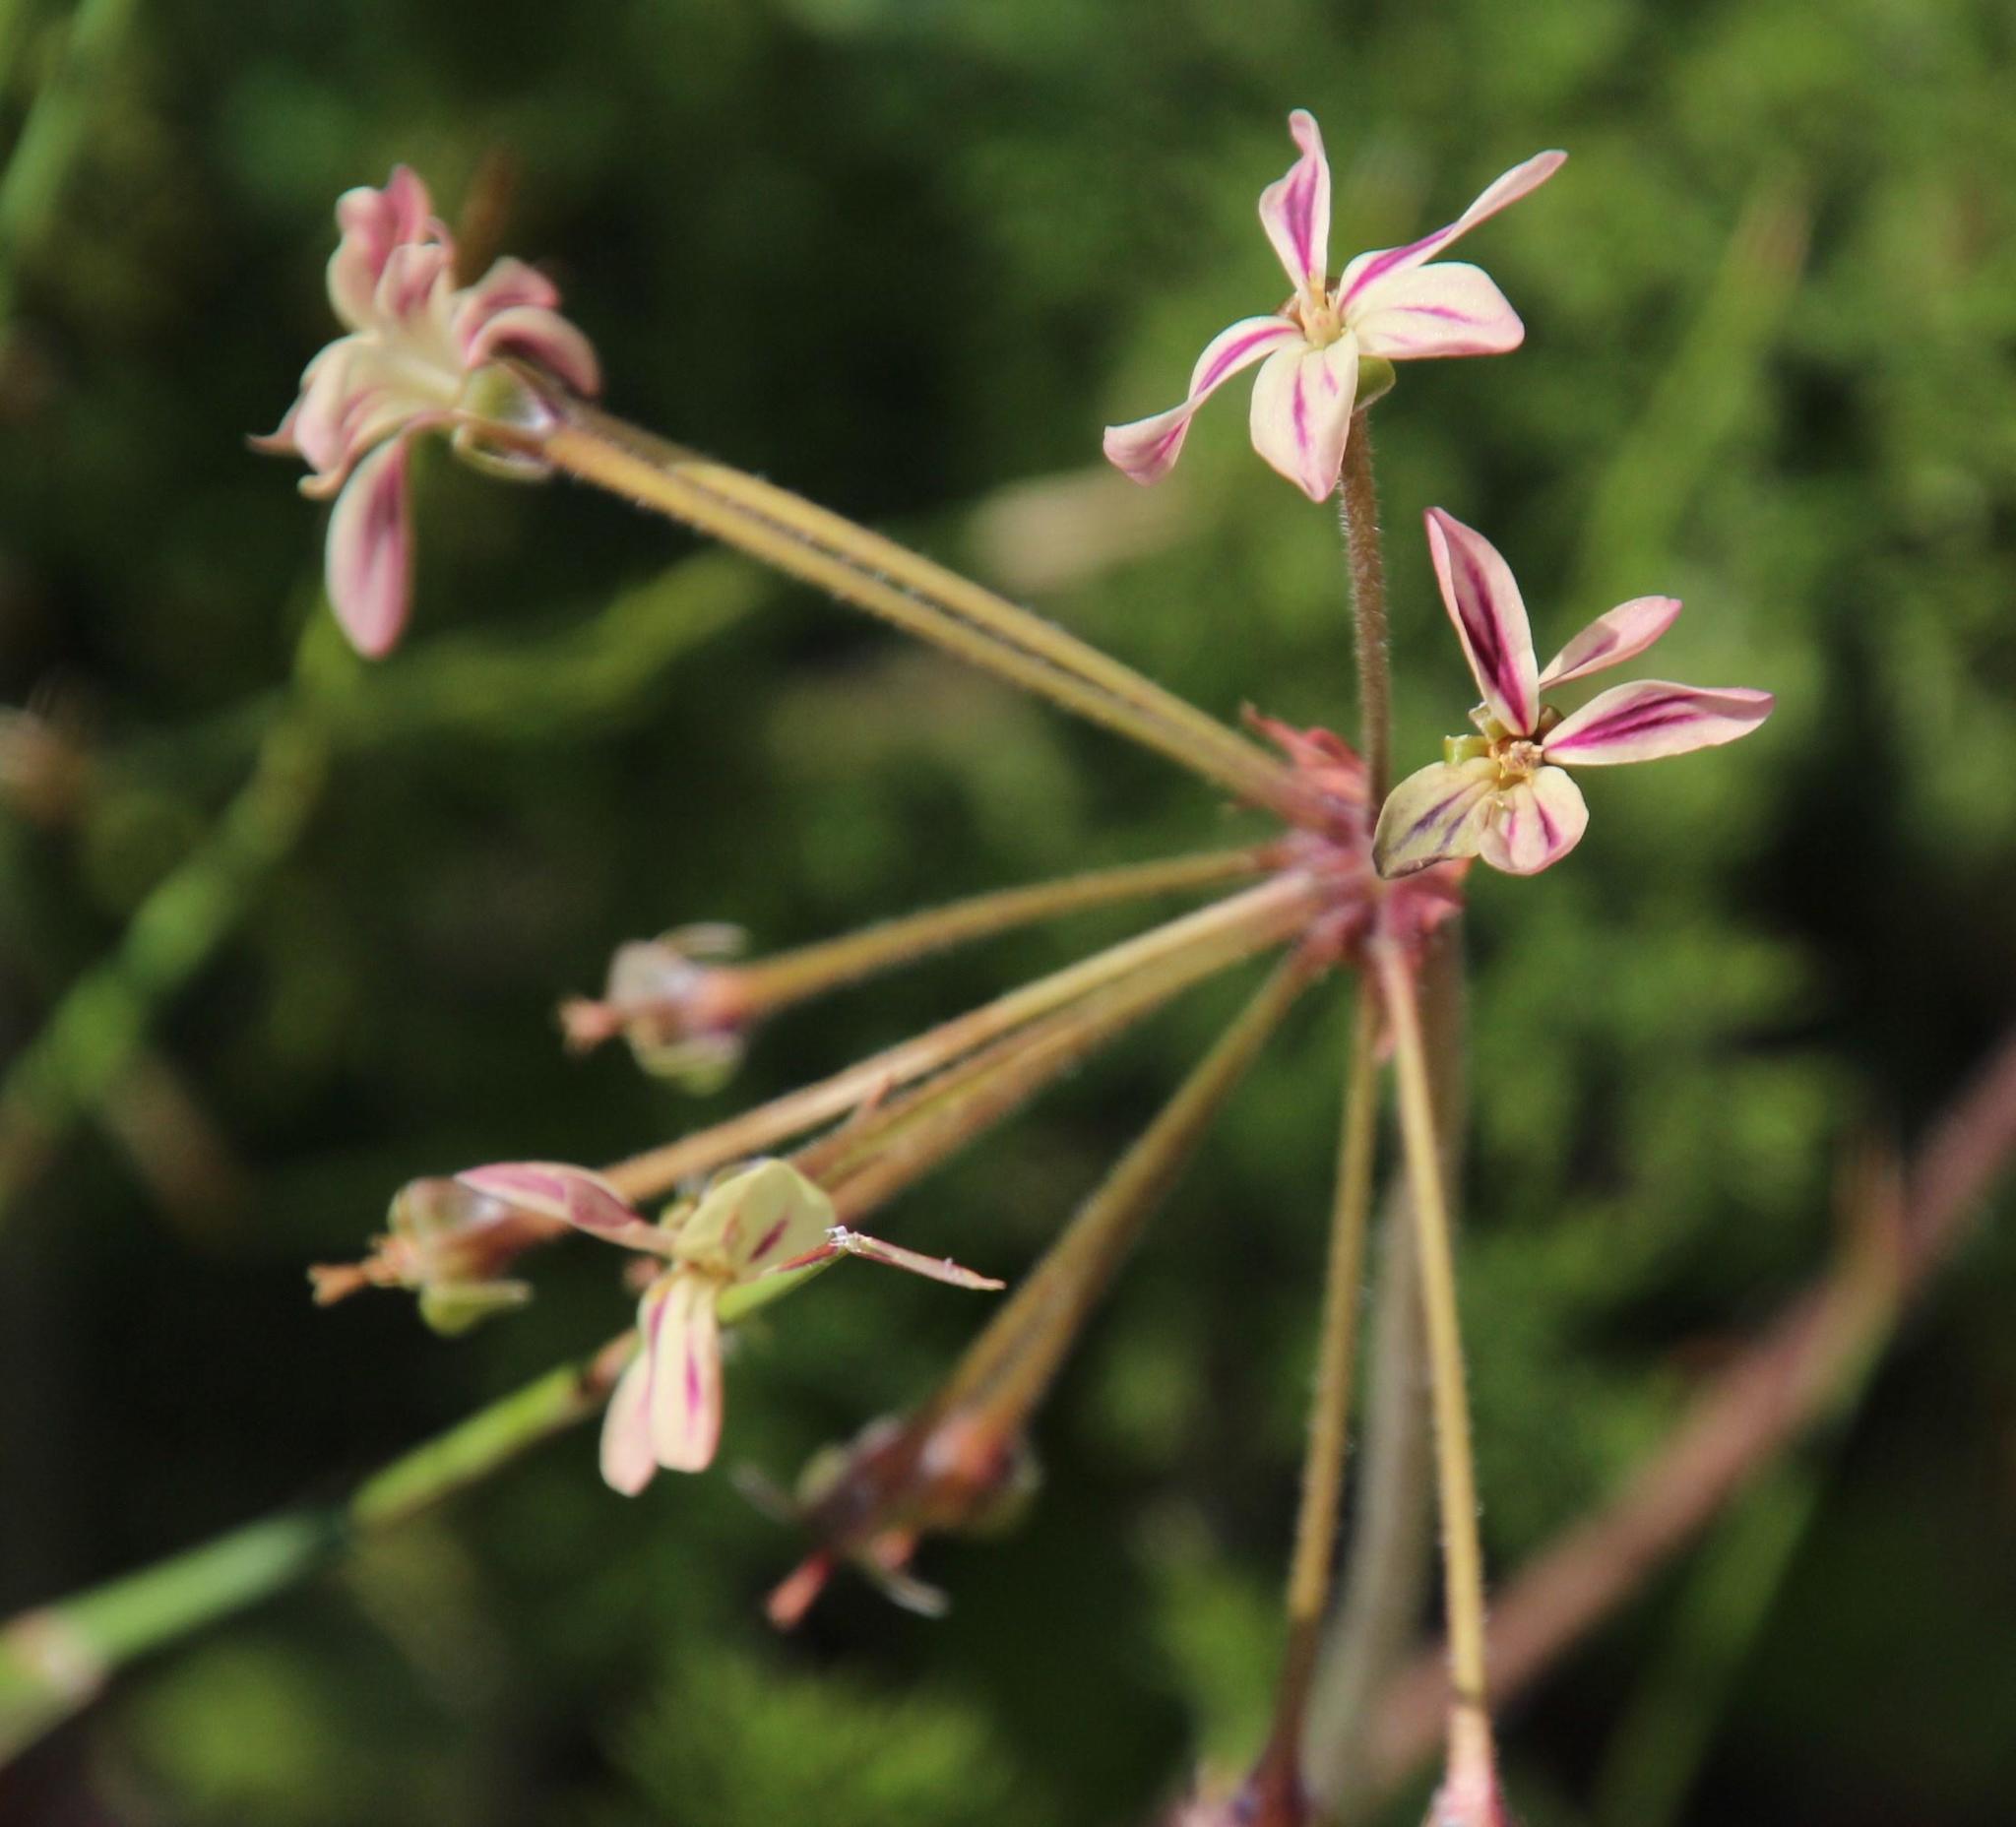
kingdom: Plantae
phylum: Tracheophyta
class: Magnoliopsida
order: Geraniales
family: Geraniaceae
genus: Pelargonium
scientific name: Pelargonium triste
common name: Night-scent pelargonium
